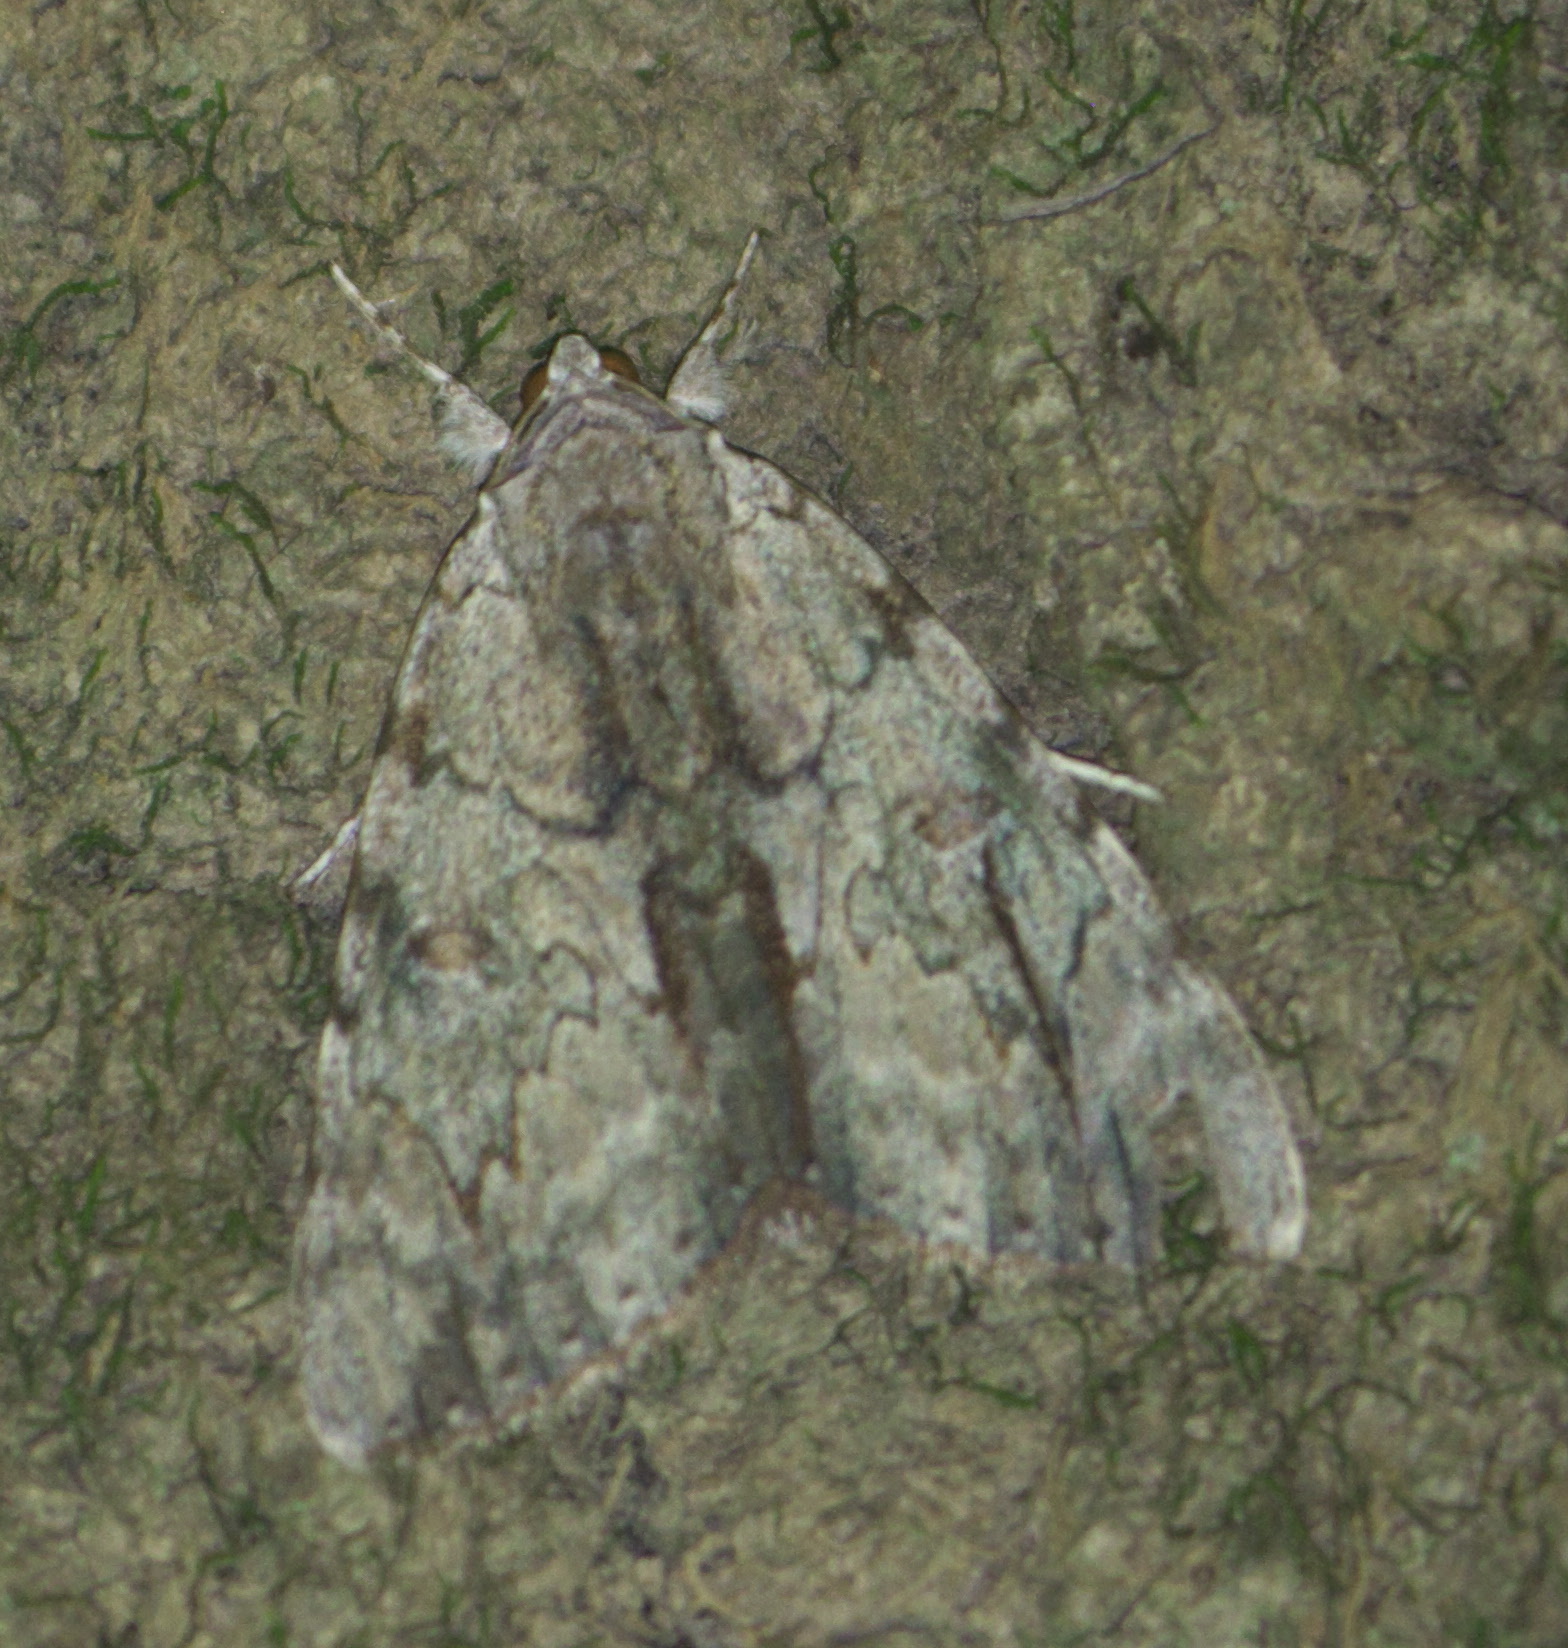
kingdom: Animalia
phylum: Arthropoda
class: Insecta
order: Lepidoptera
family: Erebidae
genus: Catocala
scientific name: Catocala insolabilis
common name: Inconsolable underwing
